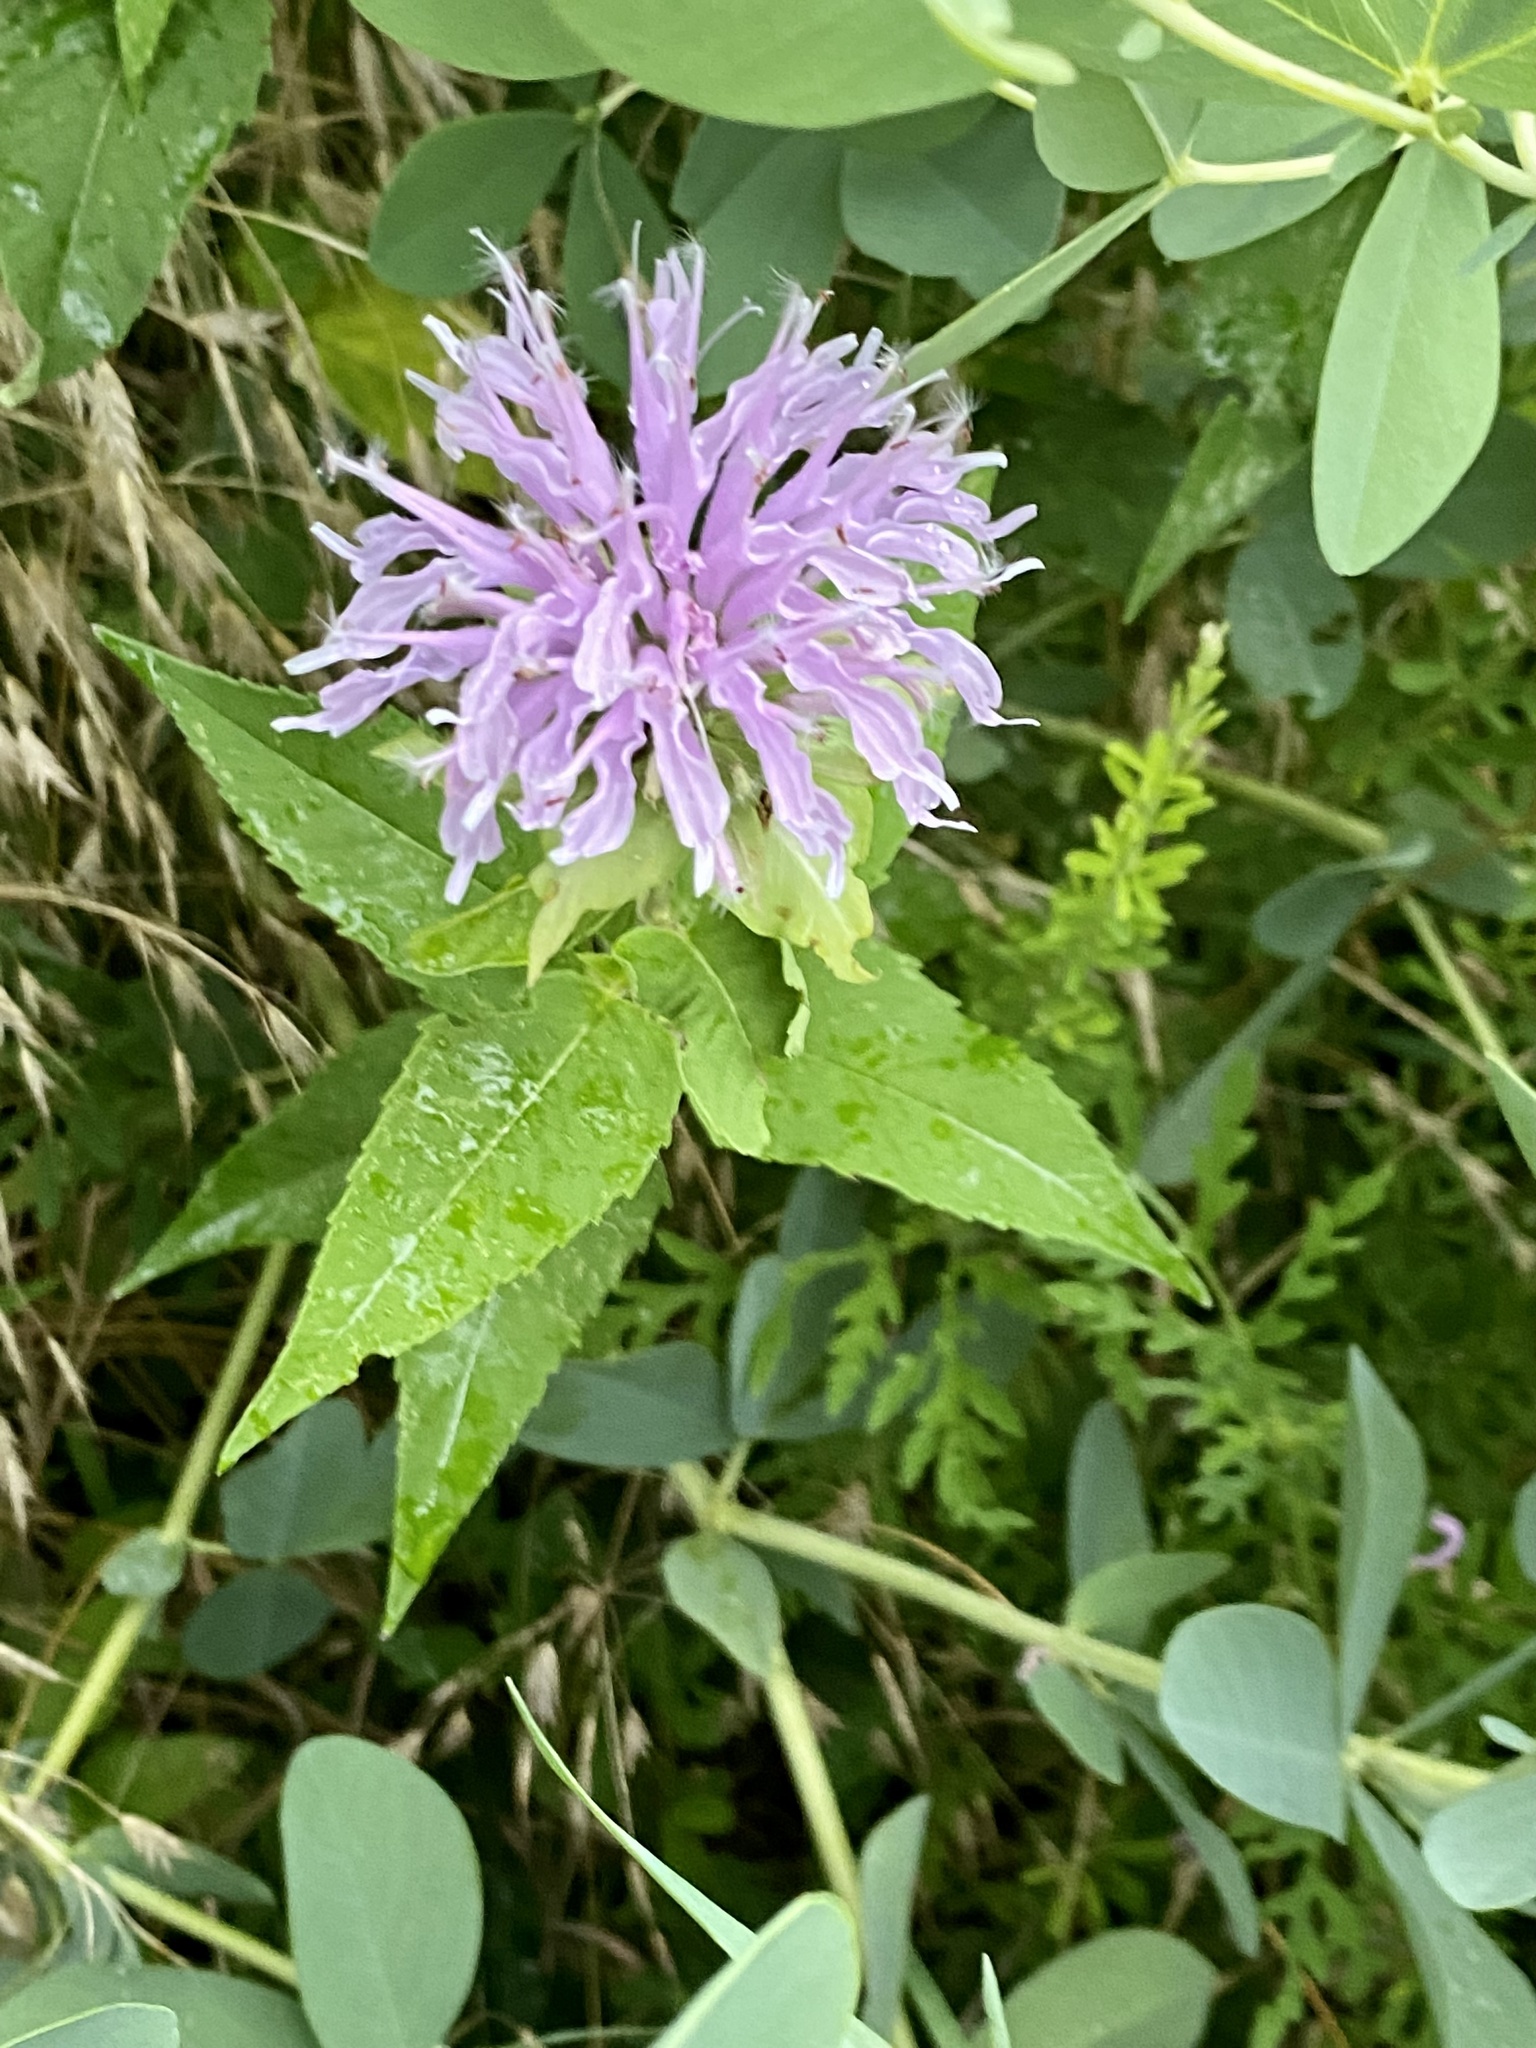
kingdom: Plantae
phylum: Tracheophyta
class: Magnoliopsida
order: Lamiales
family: Lamiaceae
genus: Monarda
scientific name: Monarda fistulosa
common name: Purple beebalm
